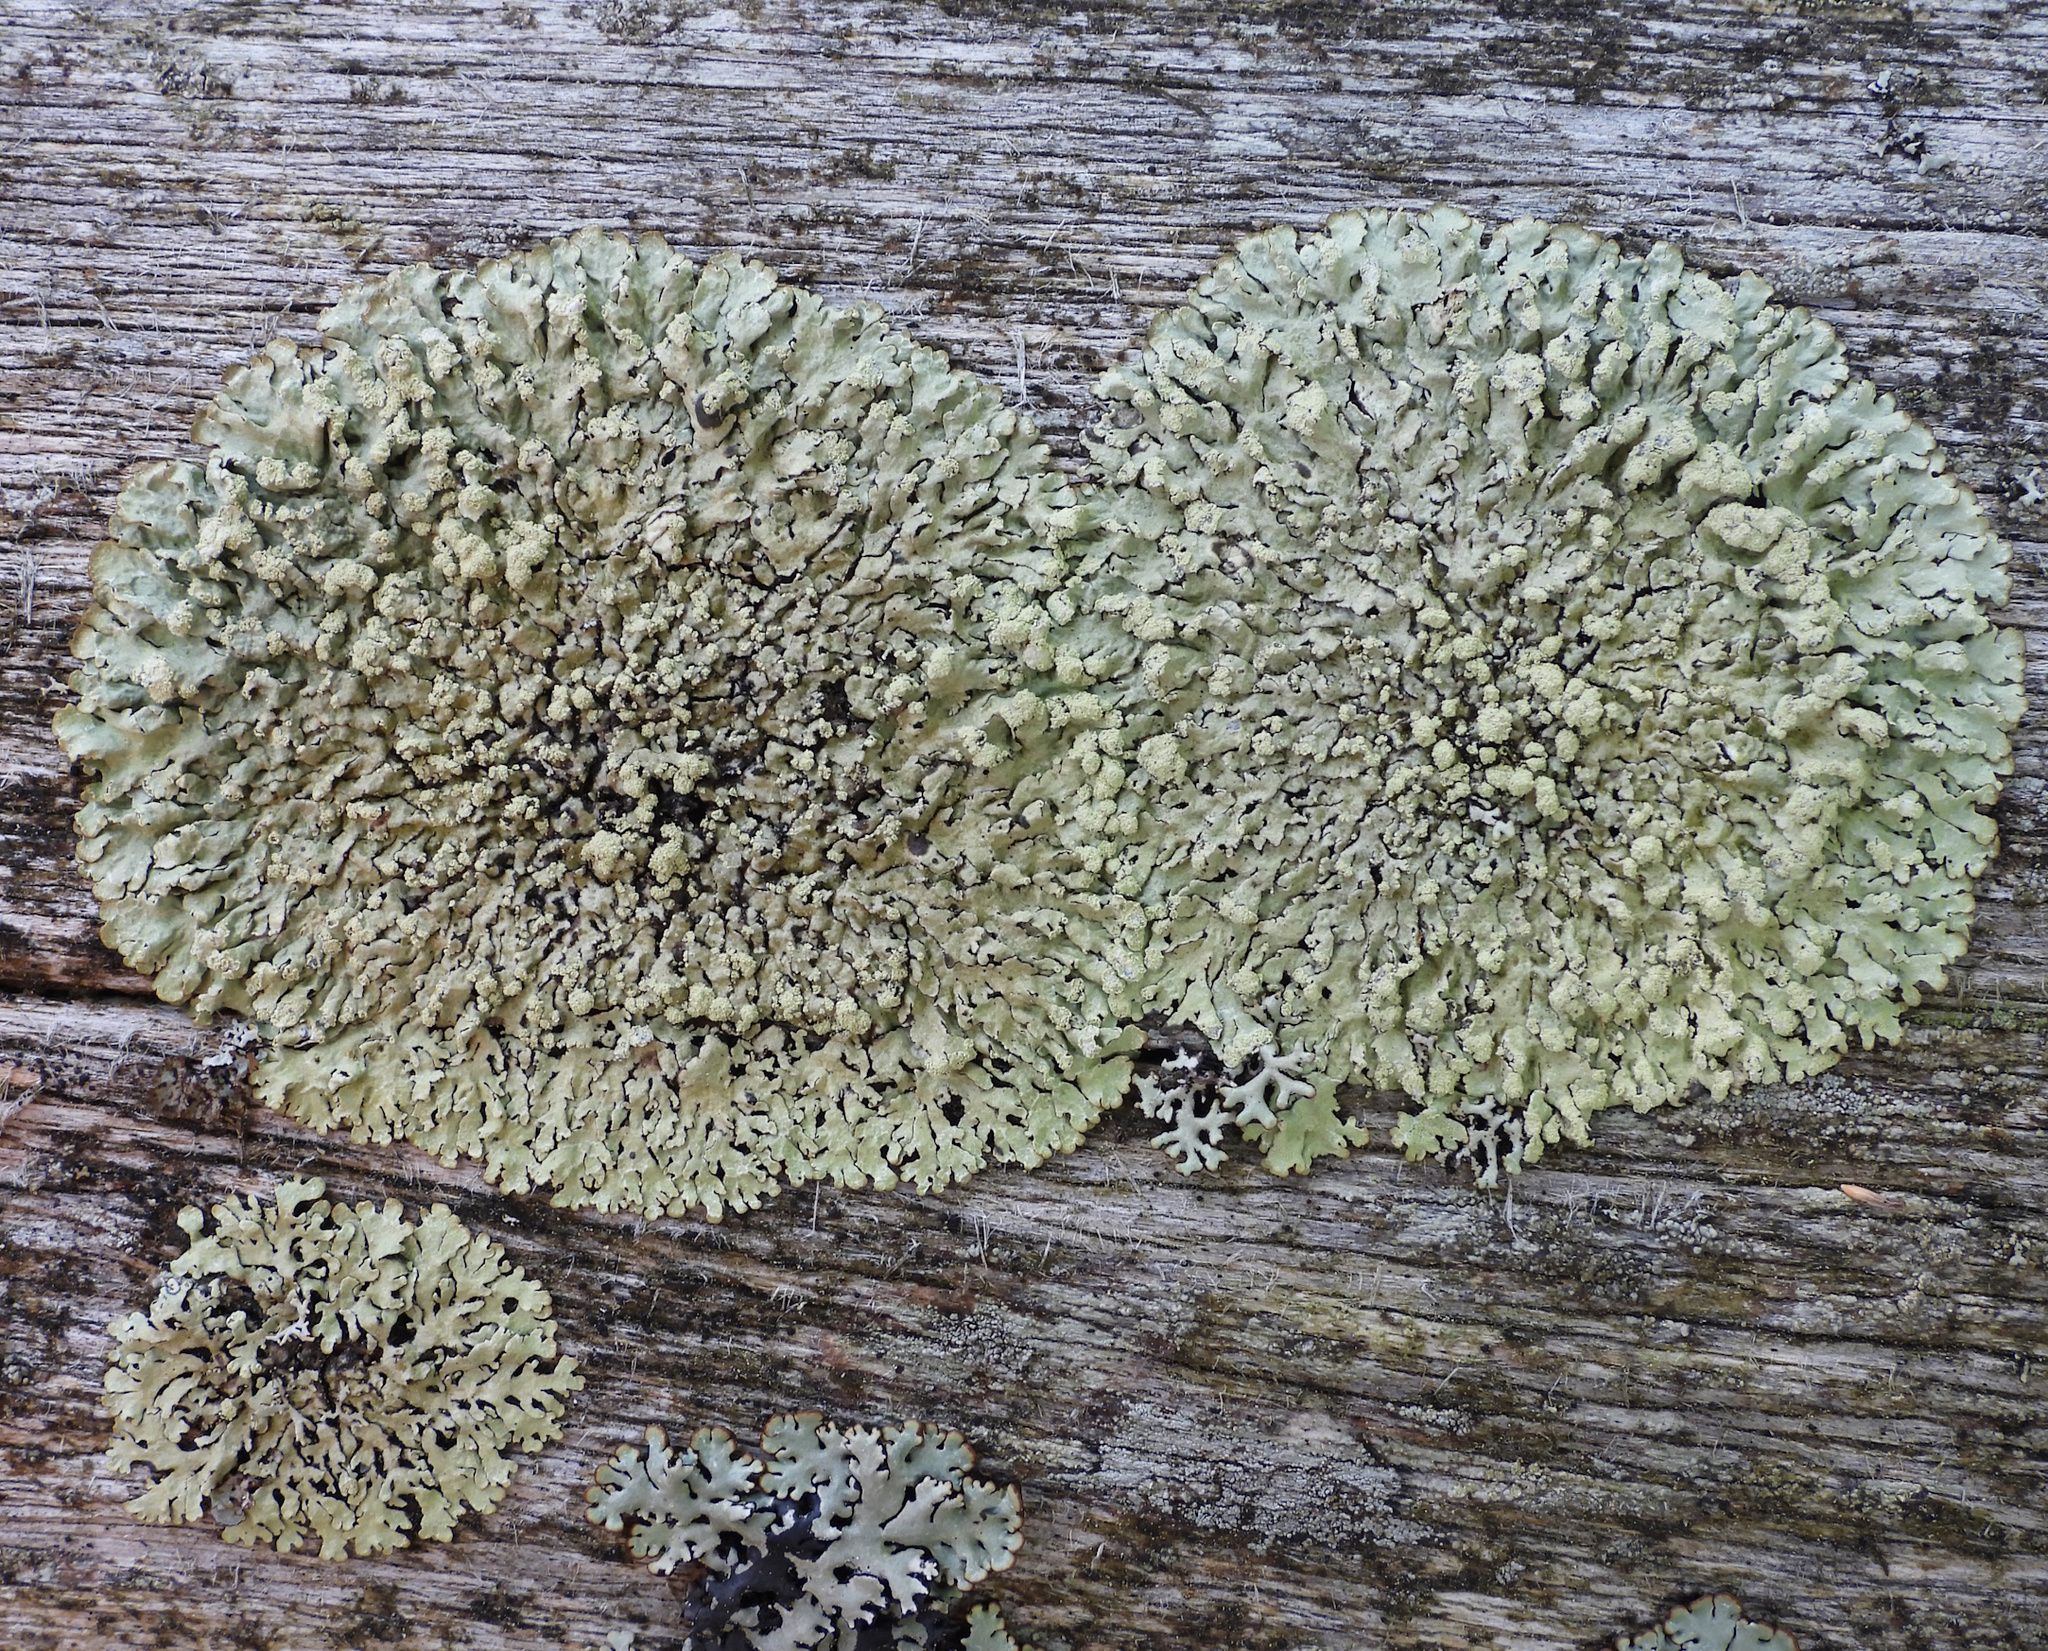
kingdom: Fungi
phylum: Ascomycota
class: Lecanoromycetes
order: Lecanorales
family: Parmeliaceae
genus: Parmeliopsis
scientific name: Parmeliopsis ambigua
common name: Green starburst lichen
